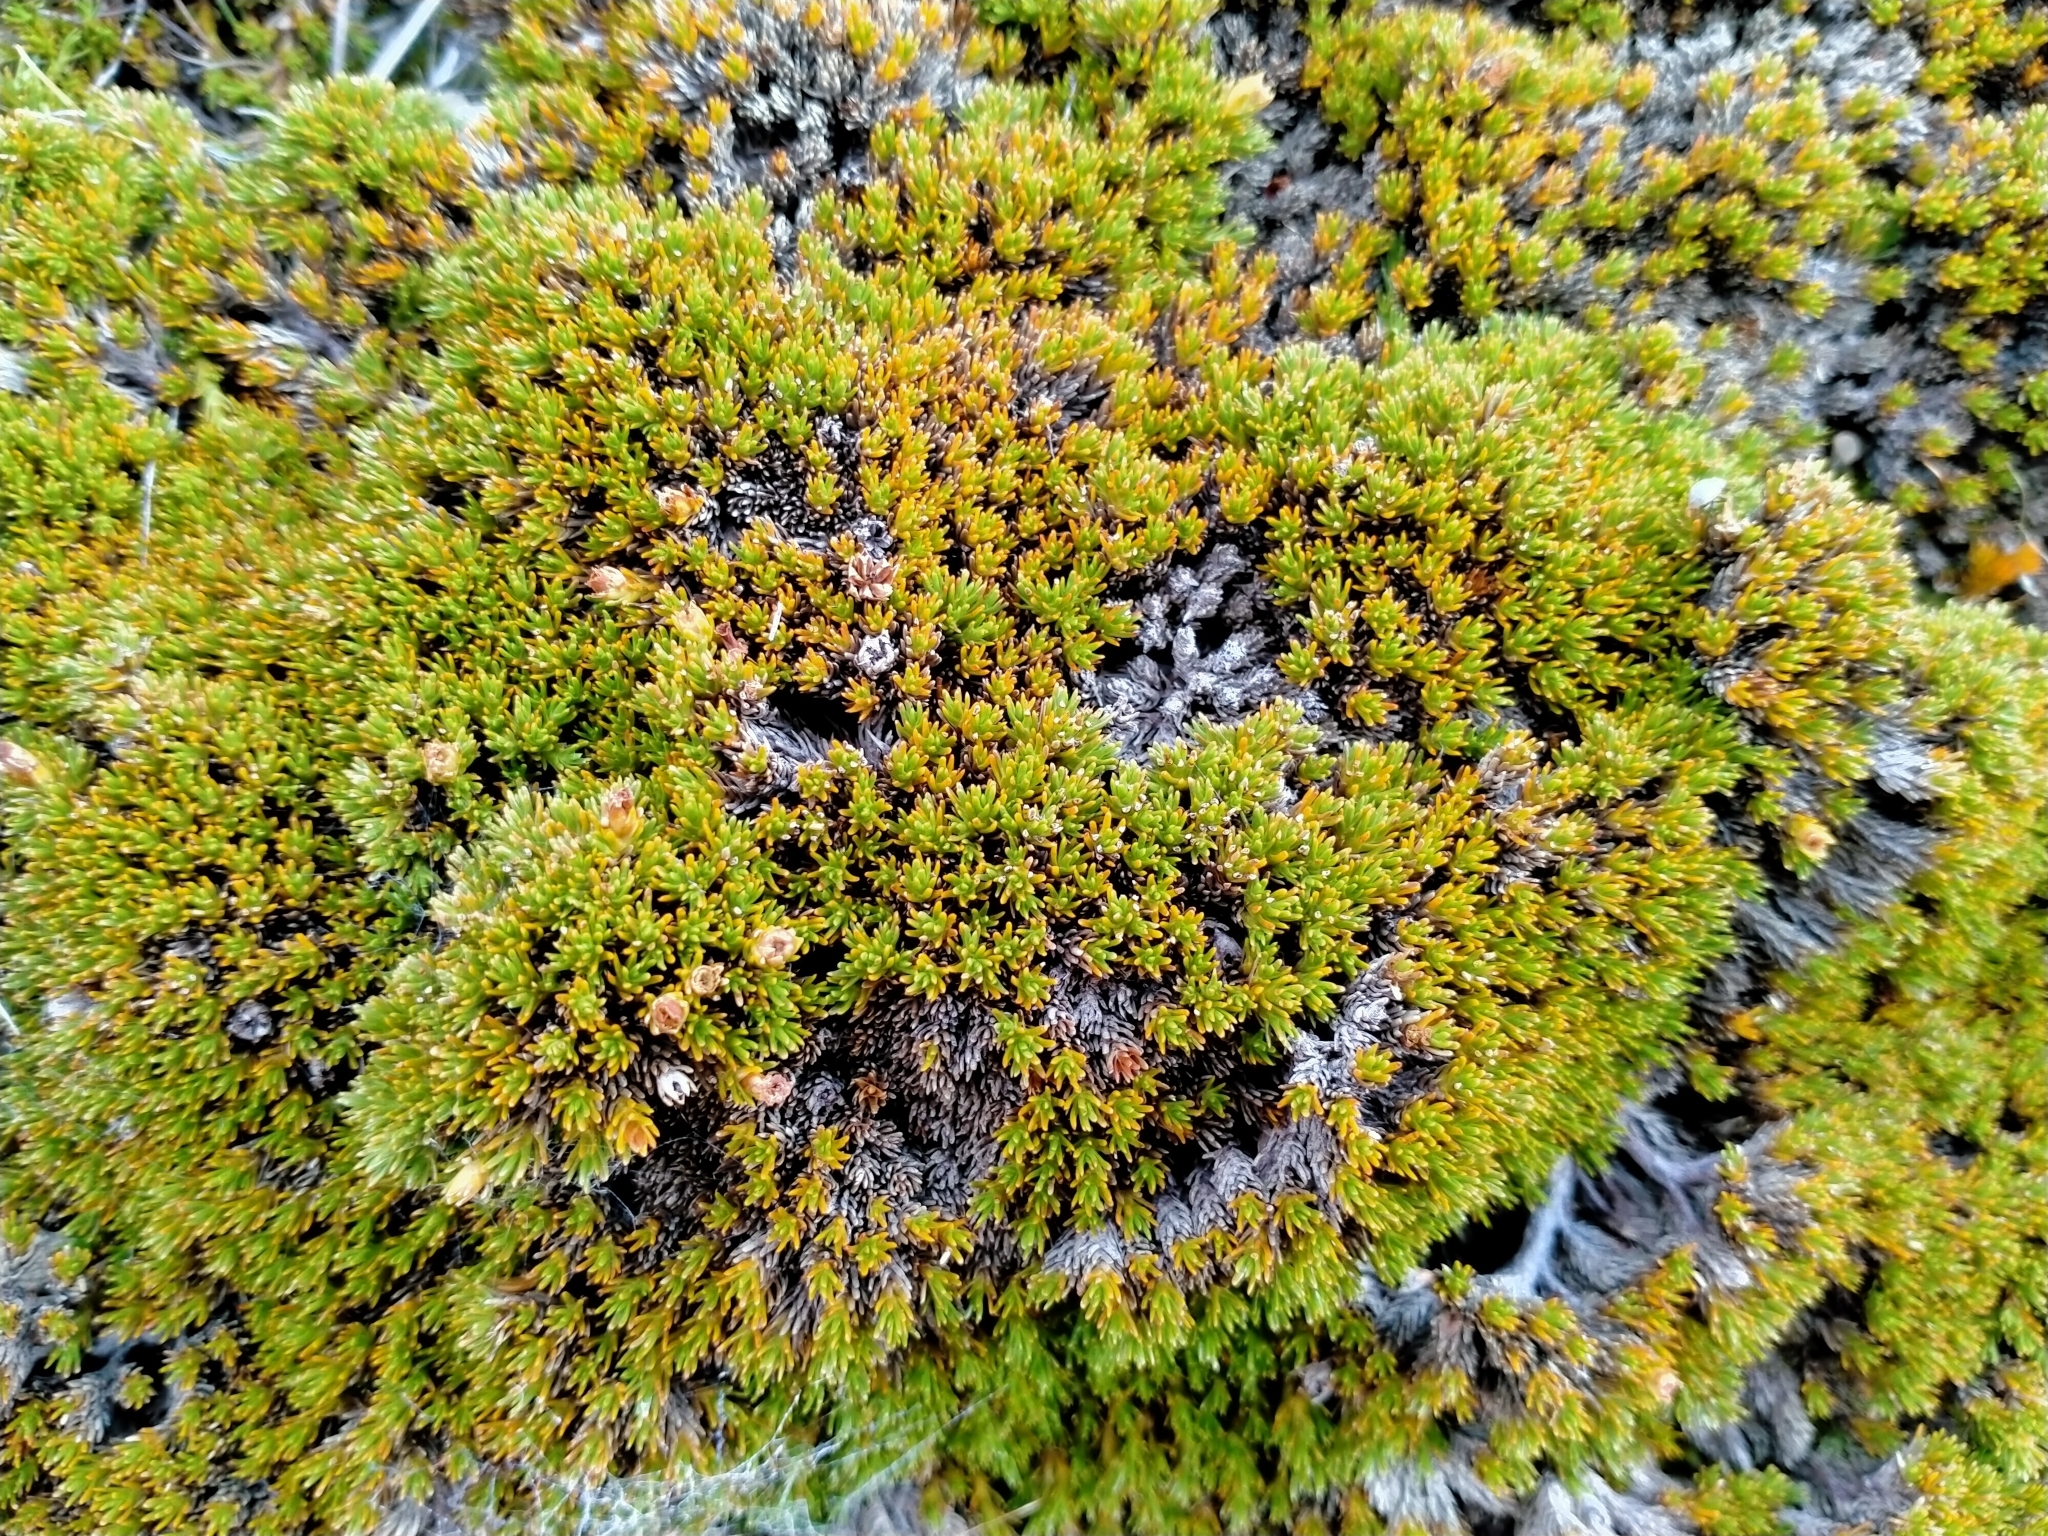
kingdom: Plantae
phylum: Tracheophyta
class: Magnoliopsida
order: Ericales
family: Ericaceae
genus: Dracophyllum
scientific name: Dracophyllum muscoides
